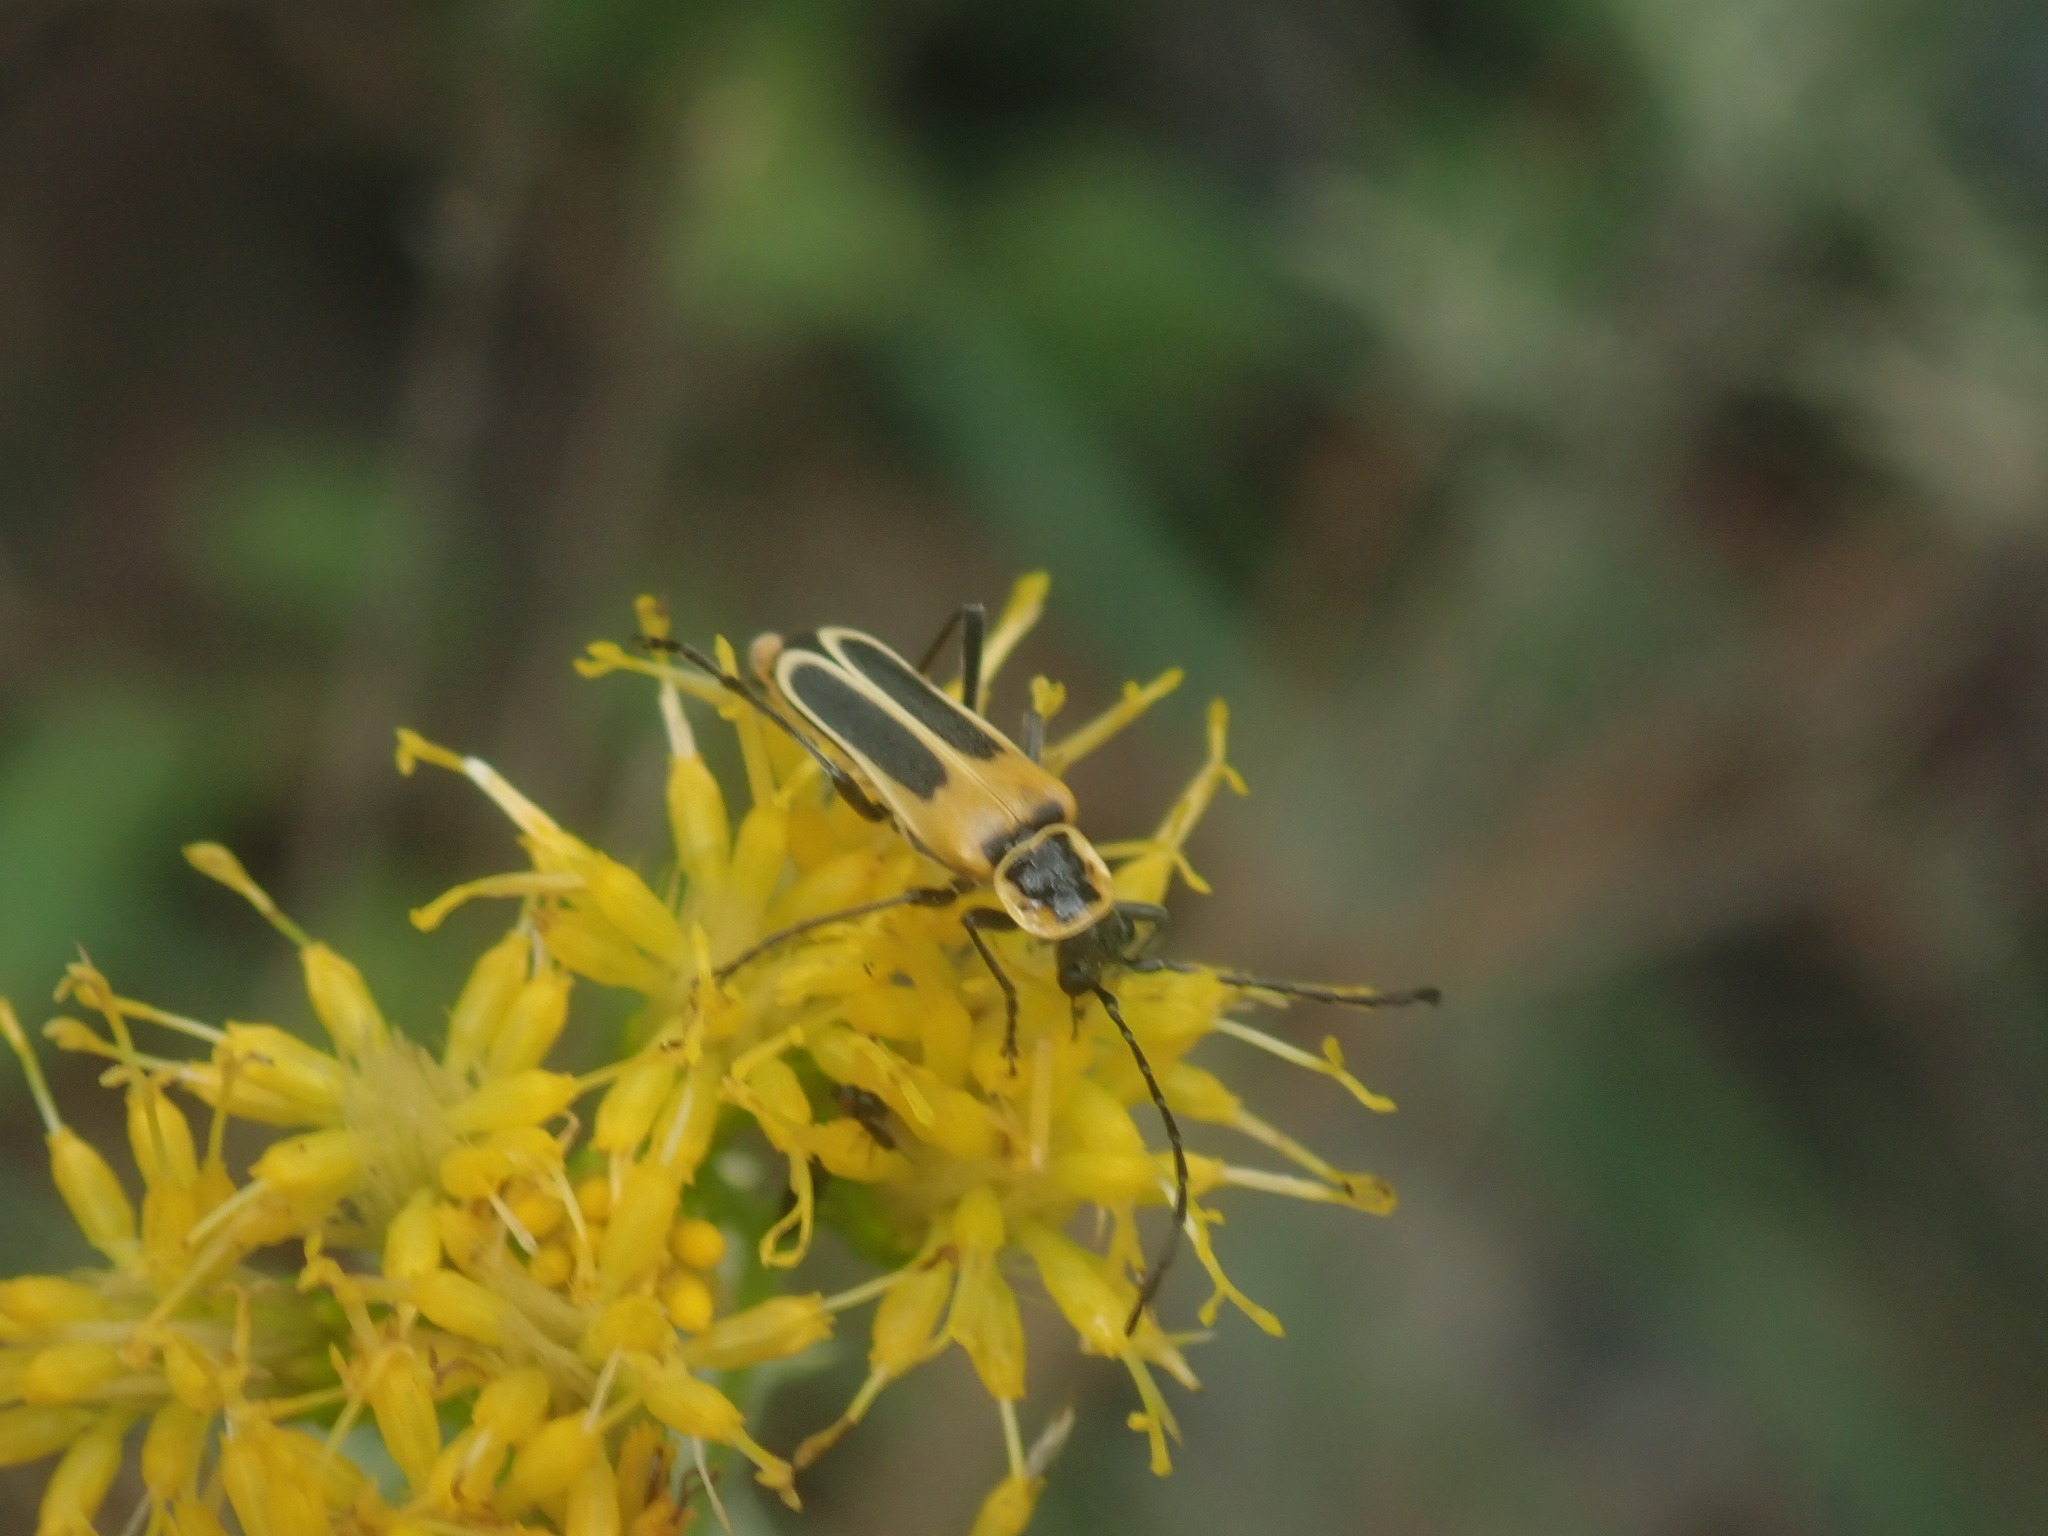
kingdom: Animalia
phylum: Arthropoda
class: Insecta
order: Coleoptera
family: Cantharidae
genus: Chauliognathus
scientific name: Chauliognathus lewisi
